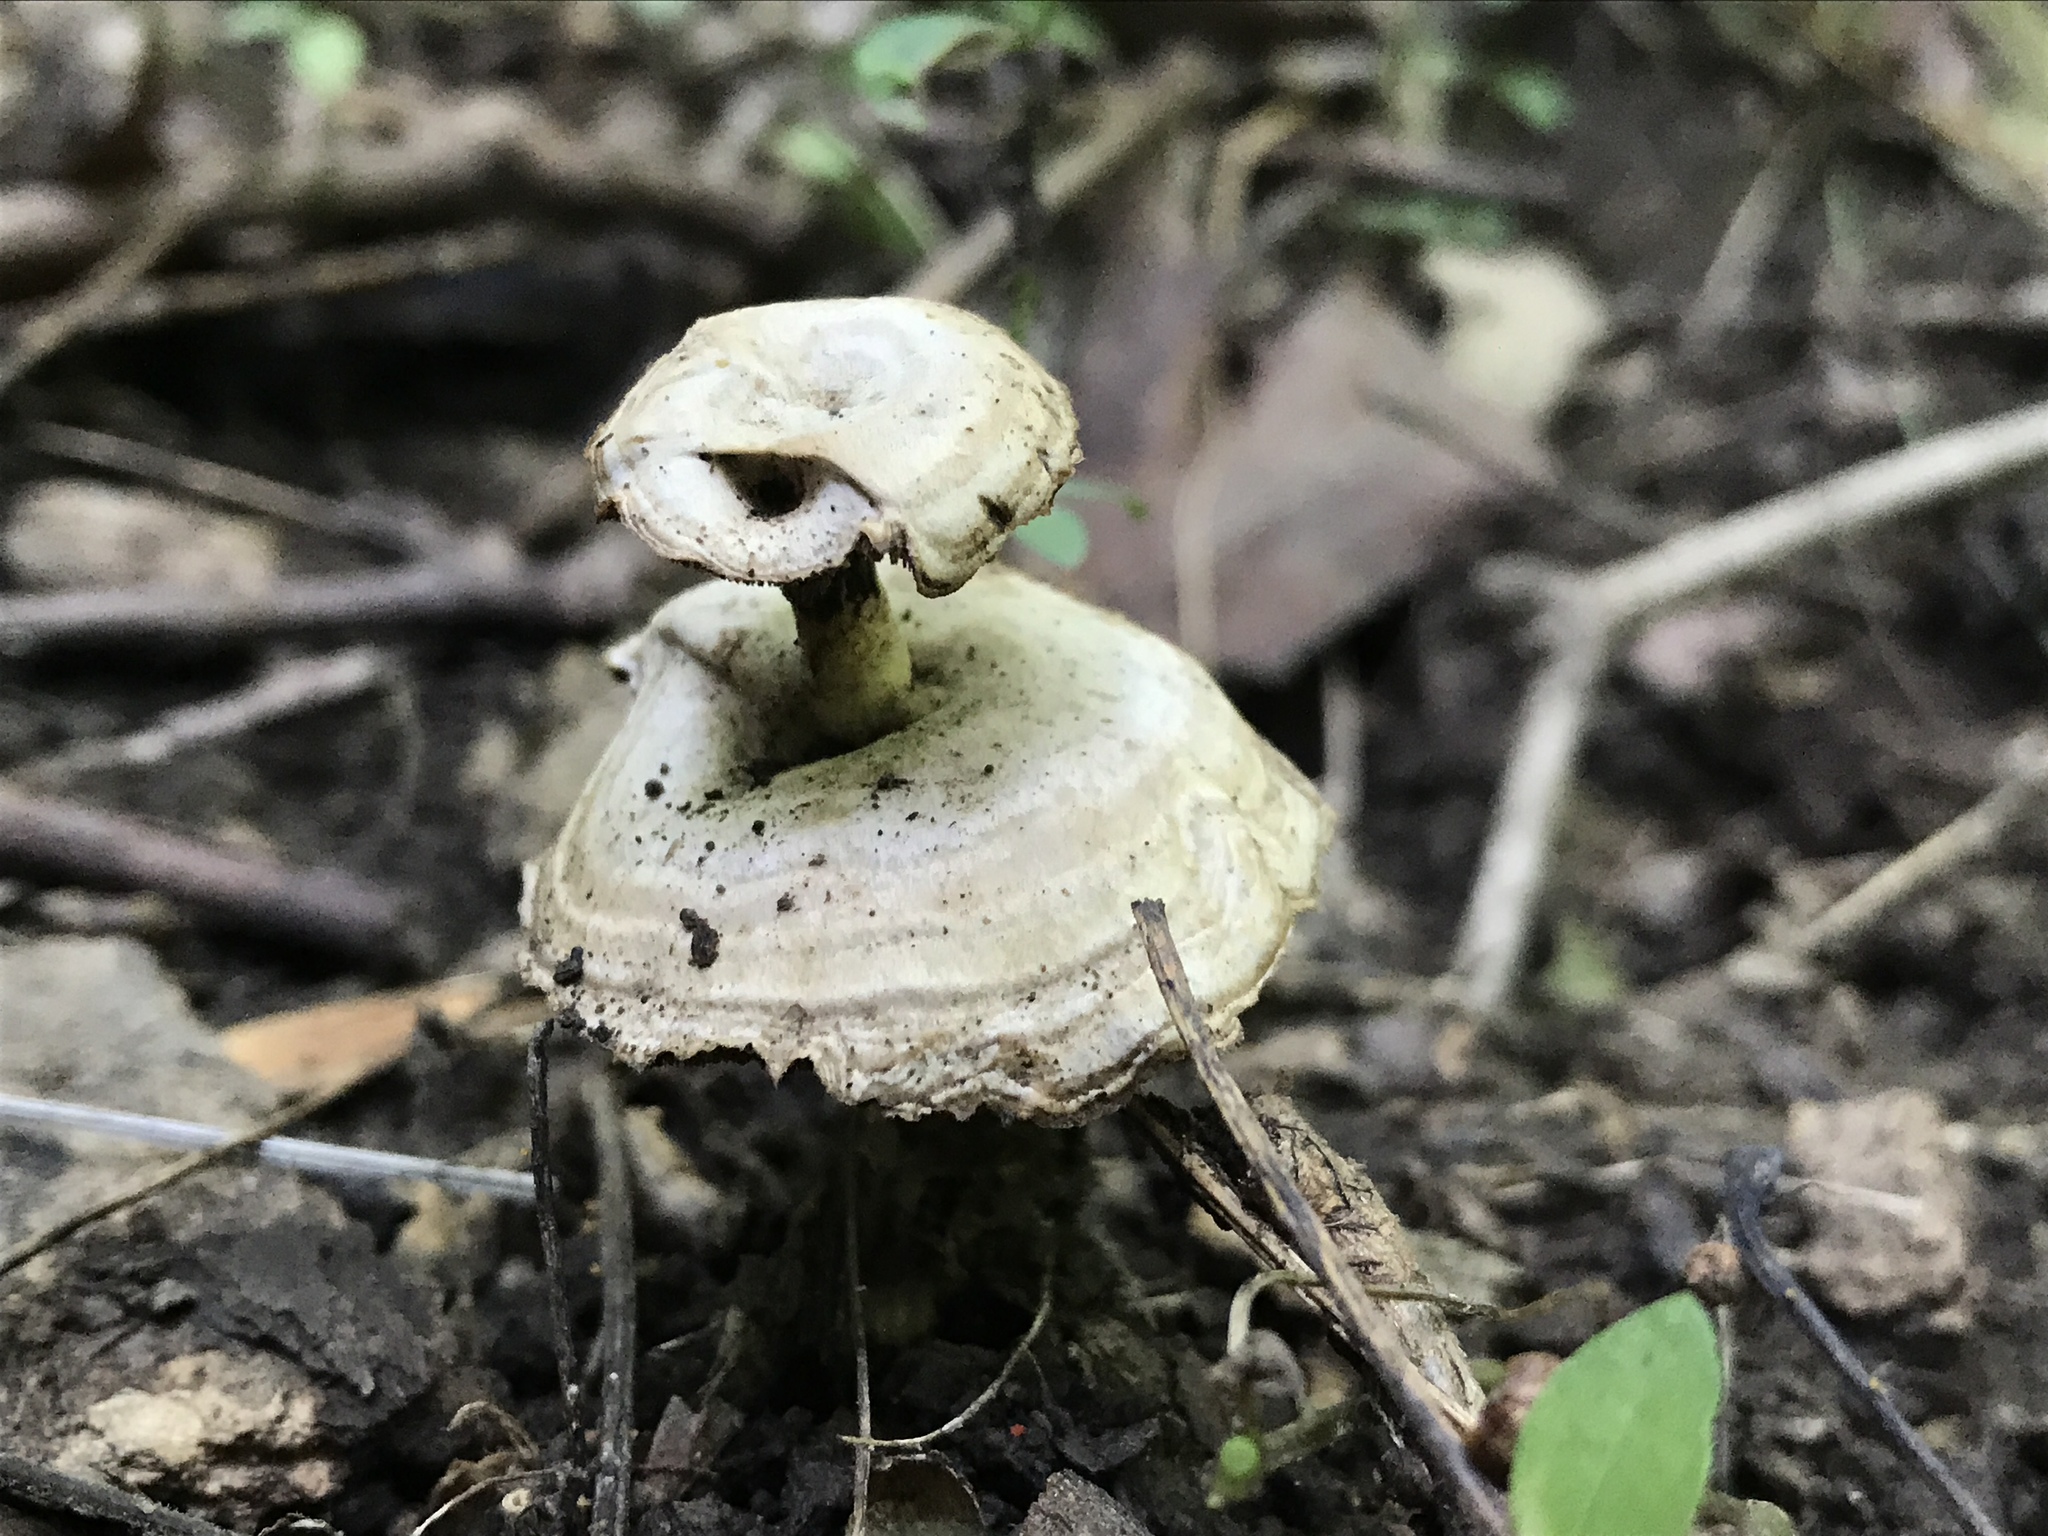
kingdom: Fungi
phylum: Basidiomycota
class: Agaricomycetes
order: Polyporales
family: Steccherinaceae
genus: Mycorrhaphium
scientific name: Mycorrhaphium adustum
